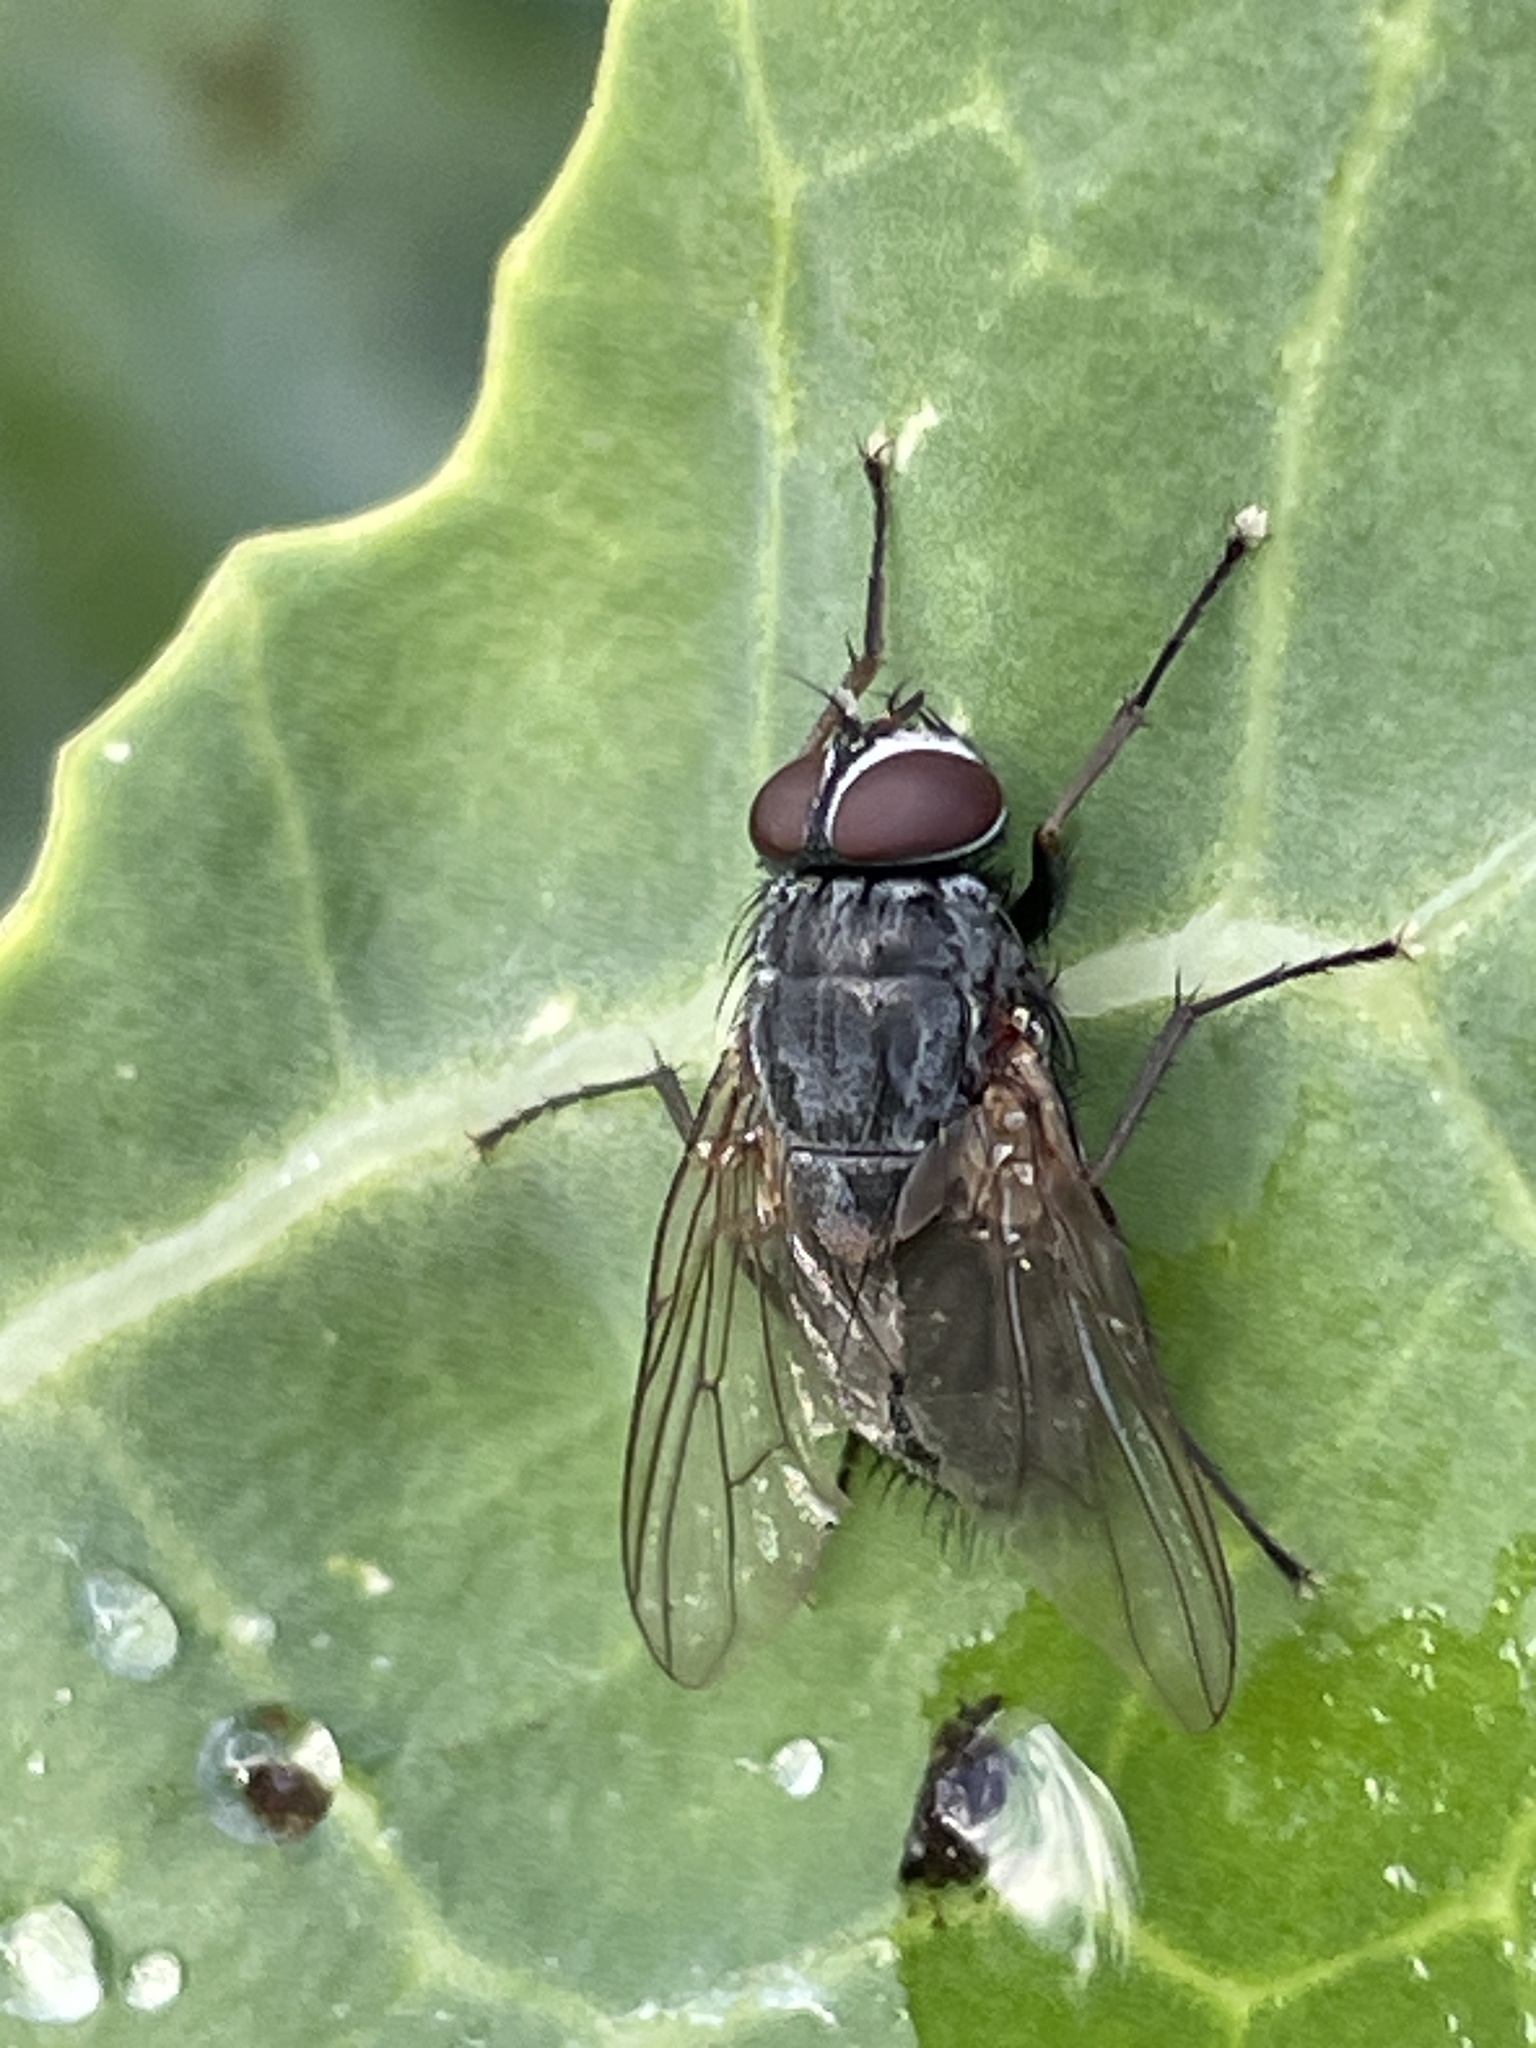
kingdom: Animalia
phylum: Arthropoda
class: Insecta
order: Diptera
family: Muscidae
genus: Muscina
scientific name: Muscina stabulans
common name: False stable fly
